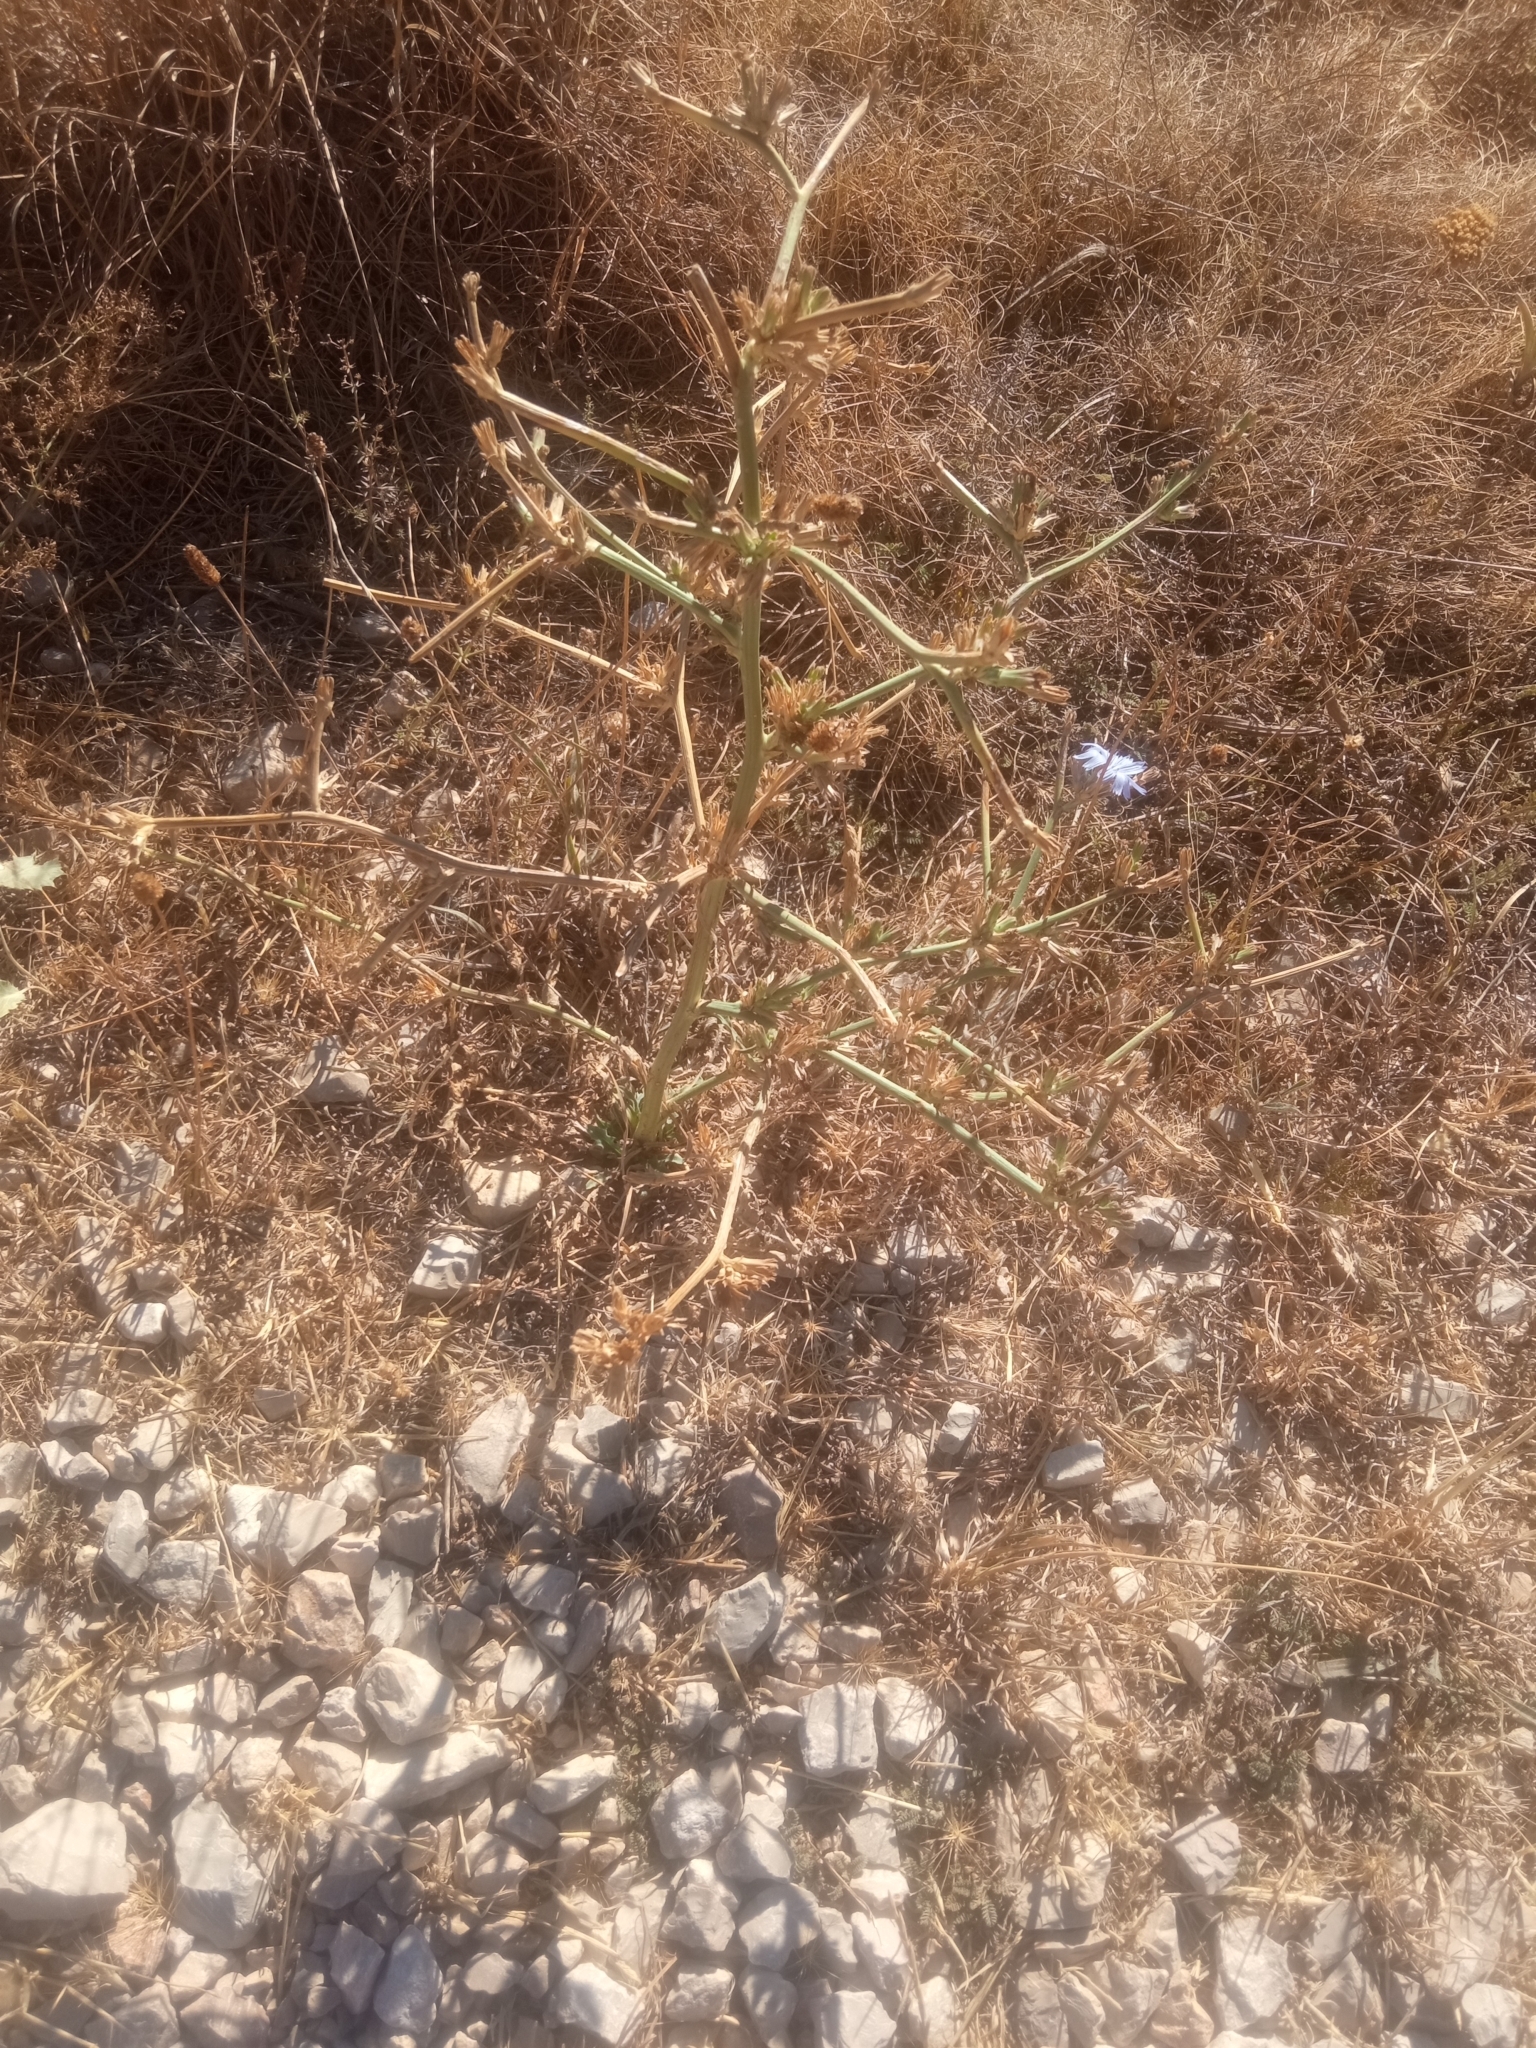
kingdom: Plantae
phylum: Tracheophyta
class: Magnoliopsida
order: Asterales
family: Asteraceae
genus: Cichorium
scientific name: Cichorium intybus
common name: Chicory
